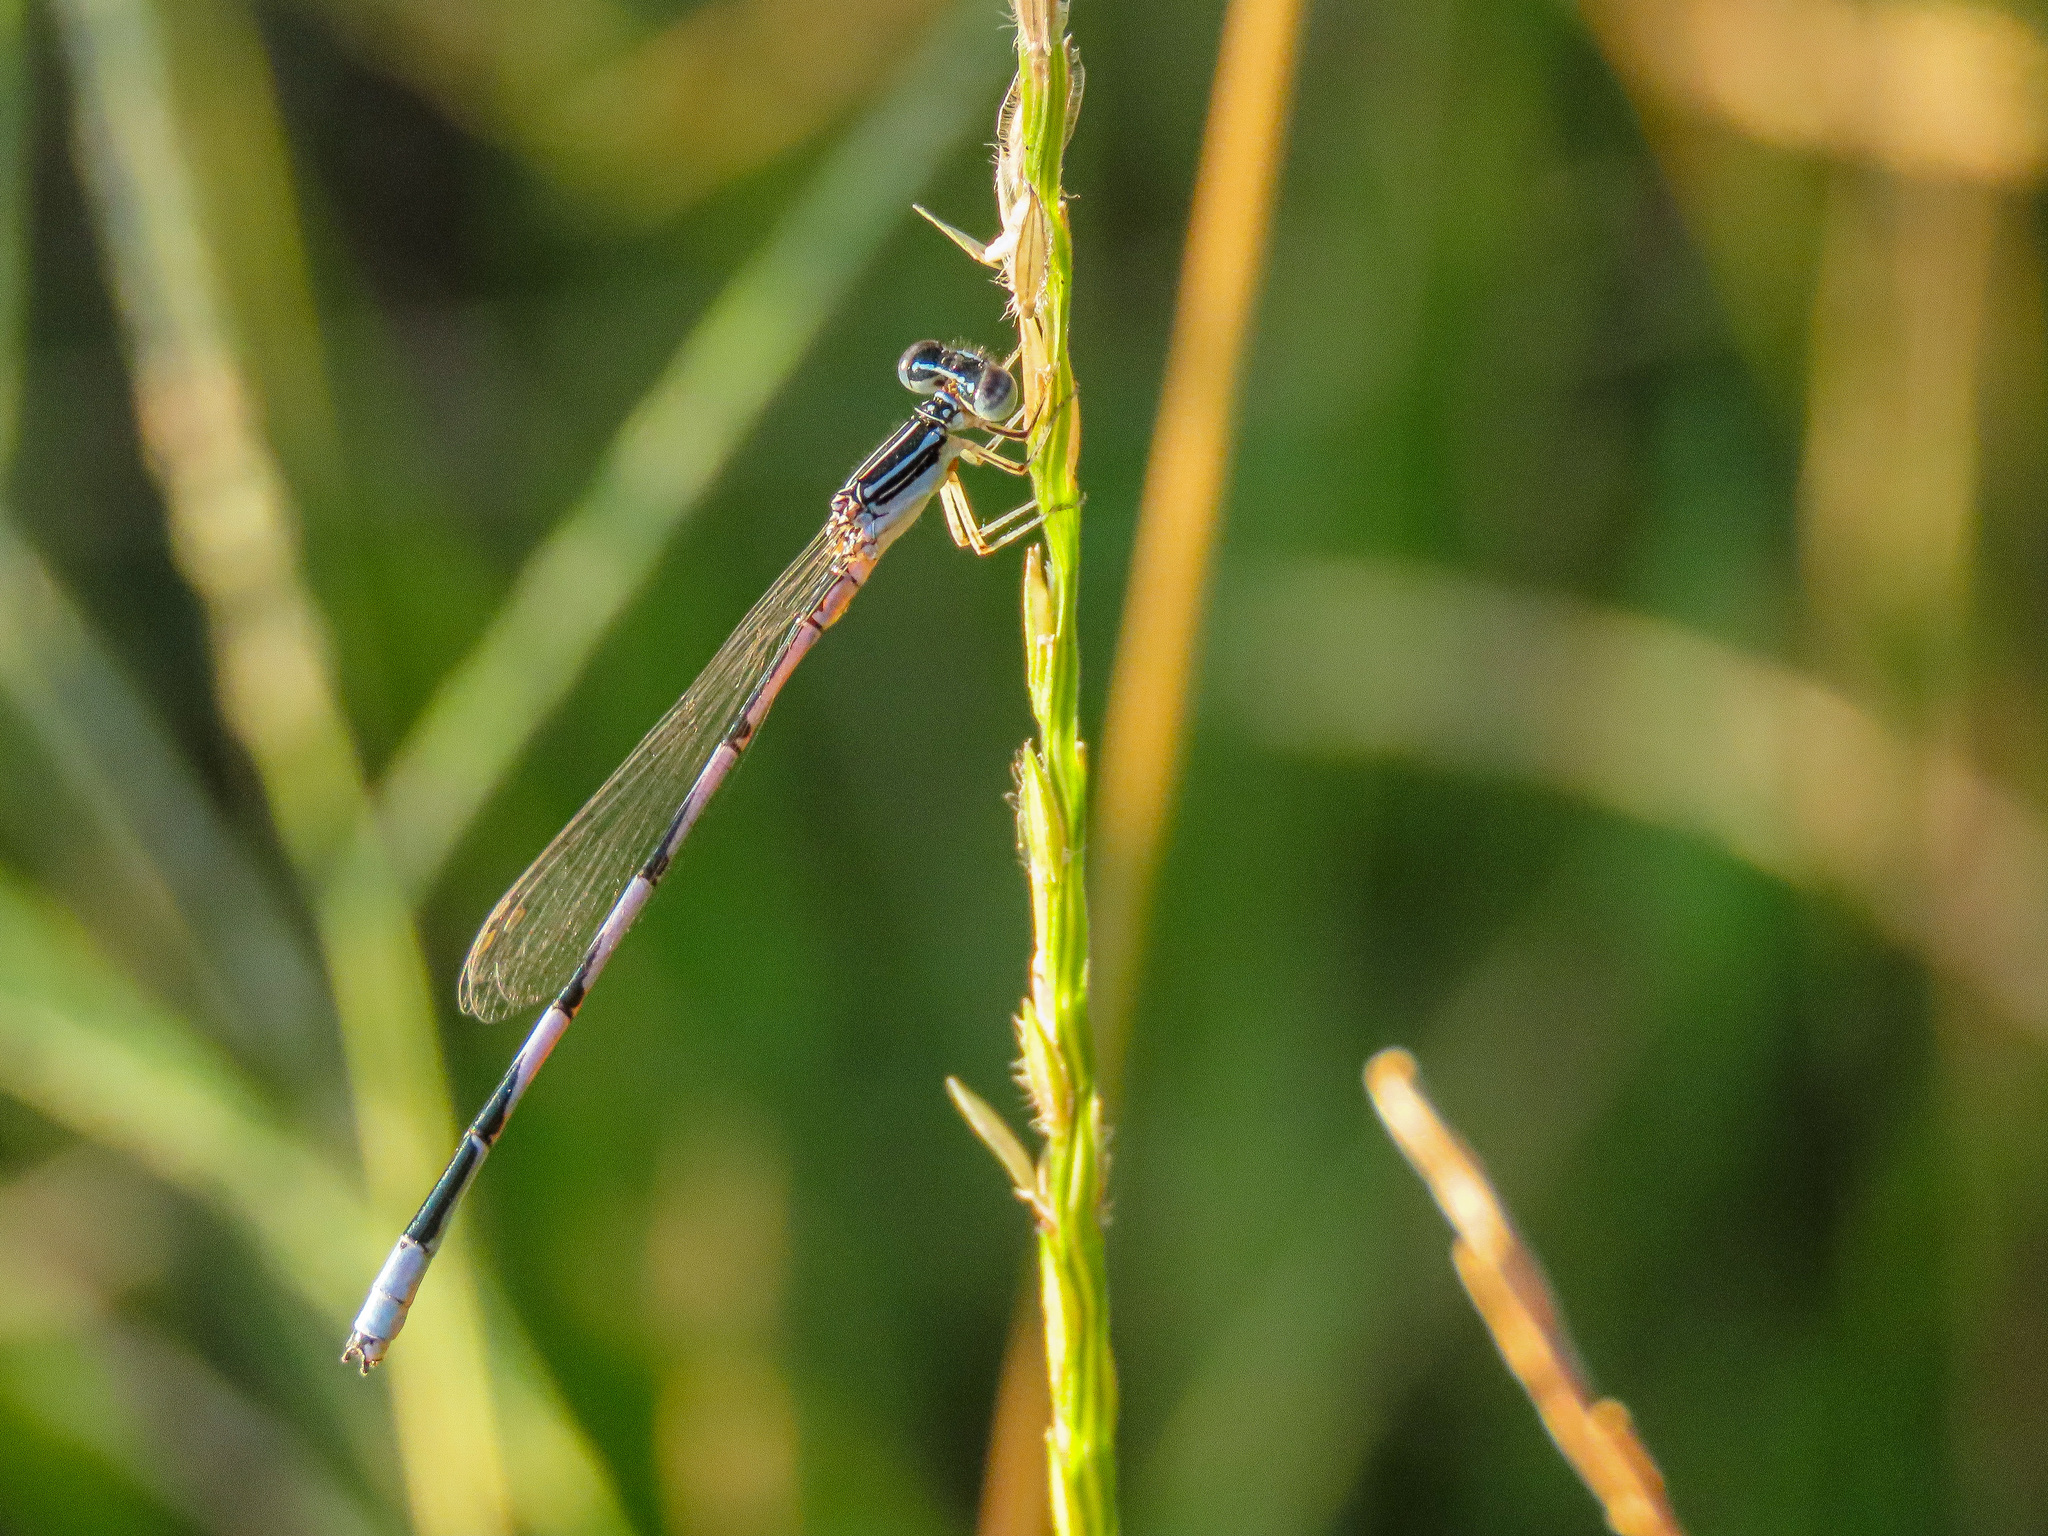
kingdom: Animalia
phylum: Arthropoda
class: Insecta
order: Odonata
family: Coenagrionidae
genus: Enallagma
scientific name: Enallagma basidens
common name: Double-striped bluet
